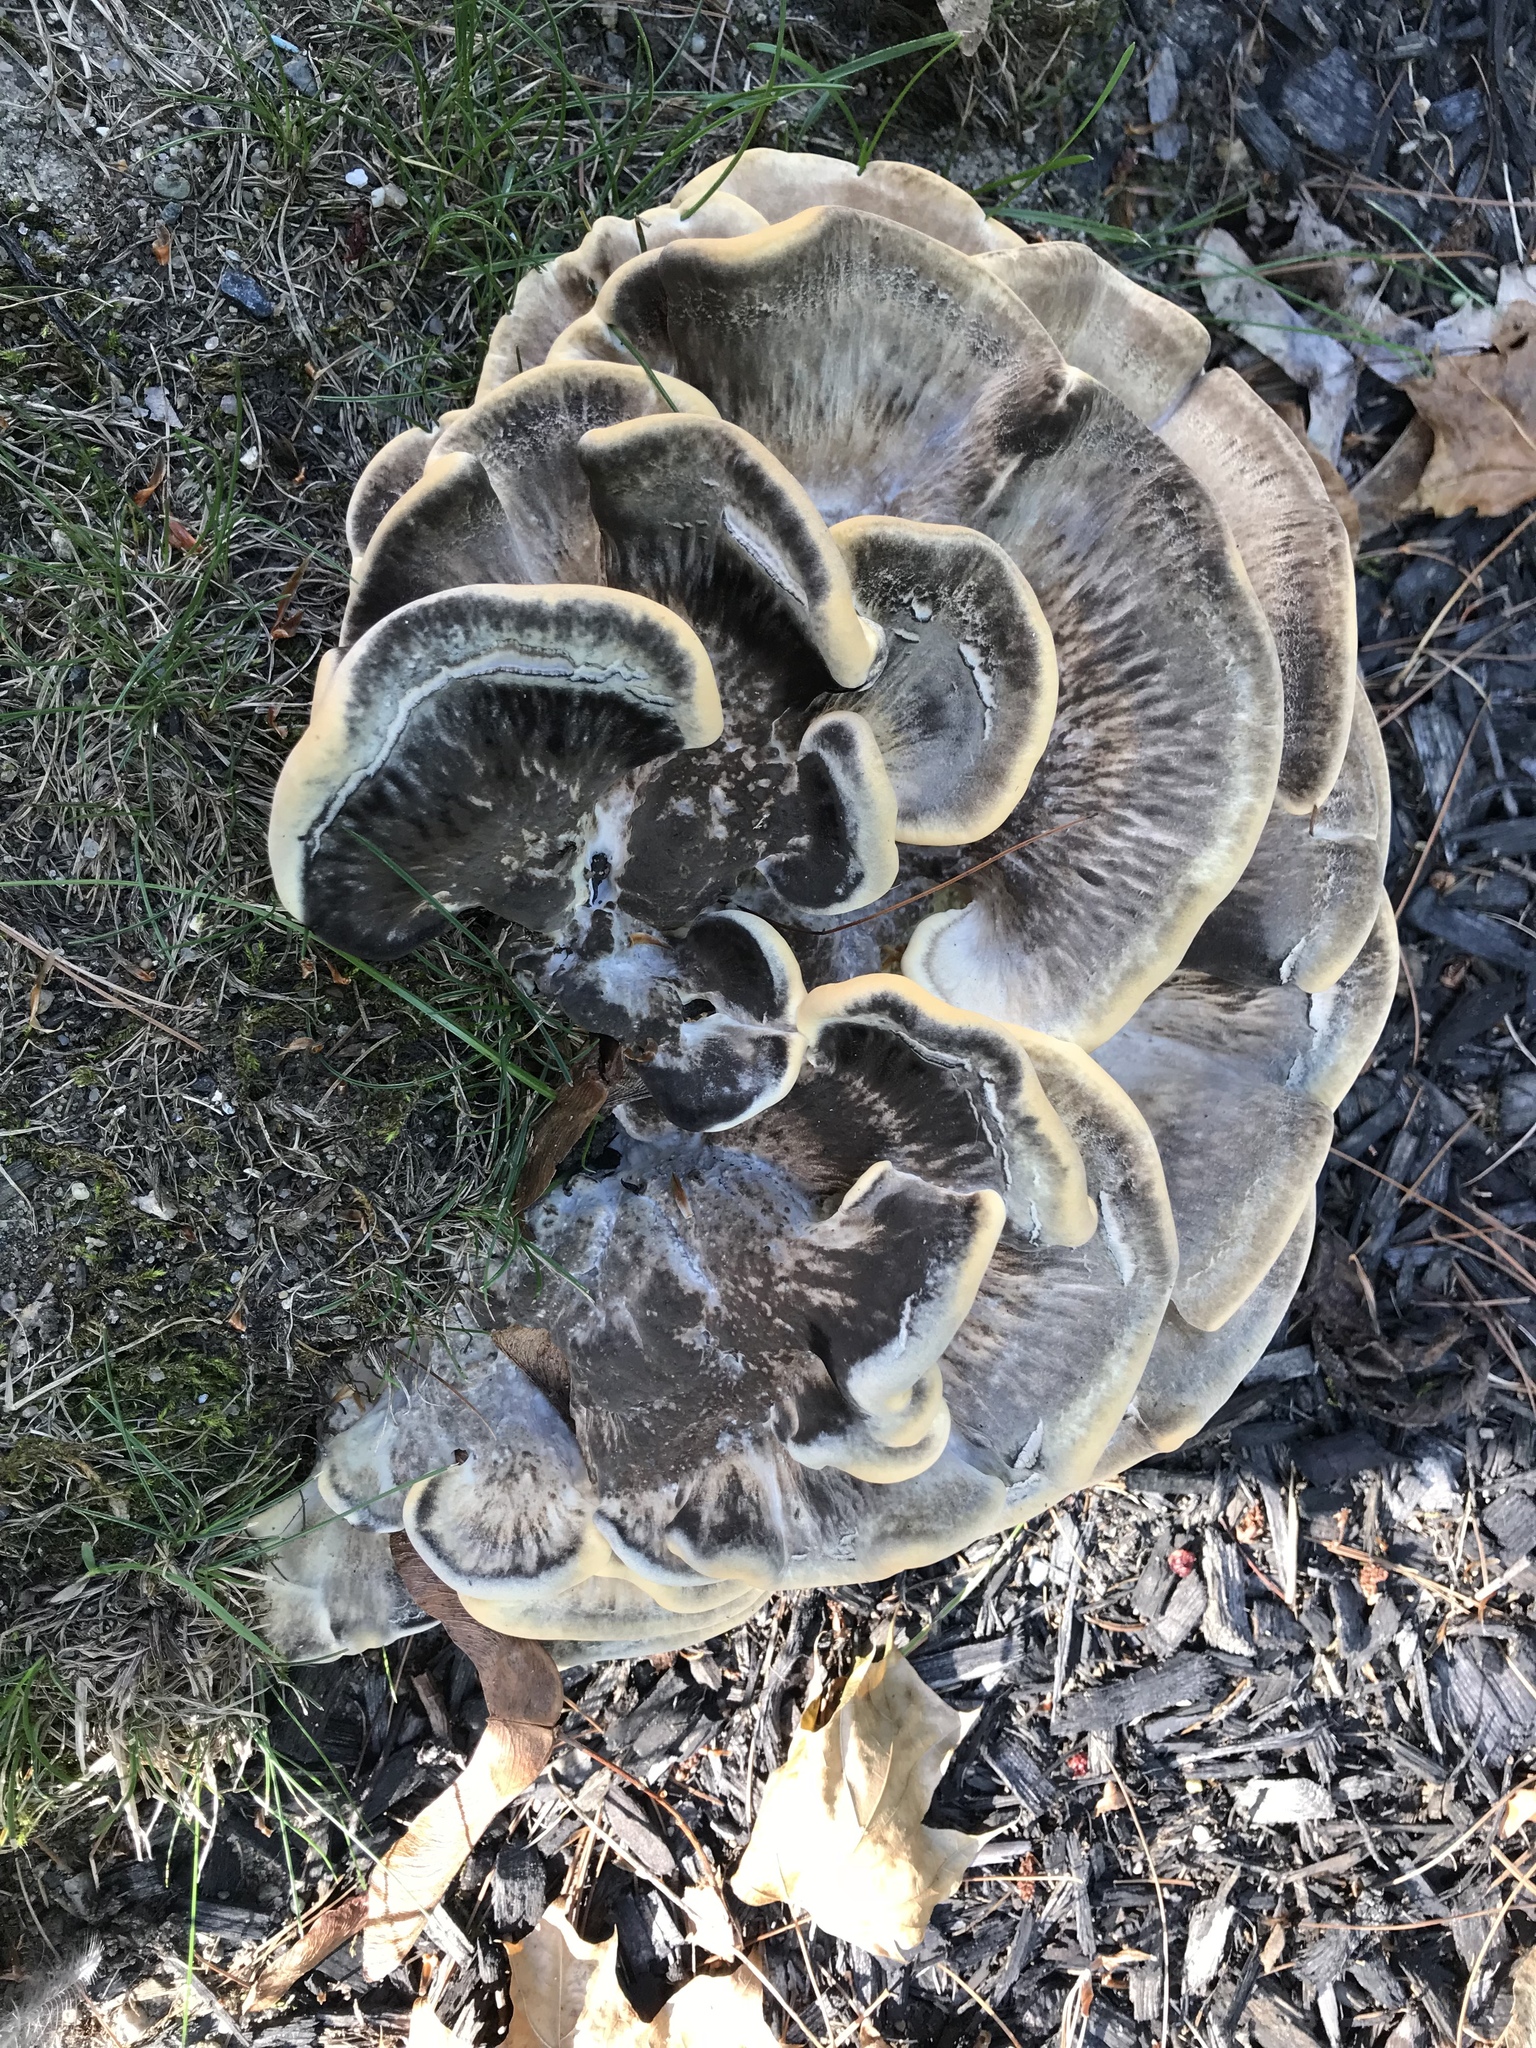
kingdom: Fungi
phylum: Basidiomycota
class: Agaricomycetes
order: Polyporales
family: Meripilaceae
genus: Meripilus
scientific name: Meripilus sumstinei
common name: Black-staining polypore
